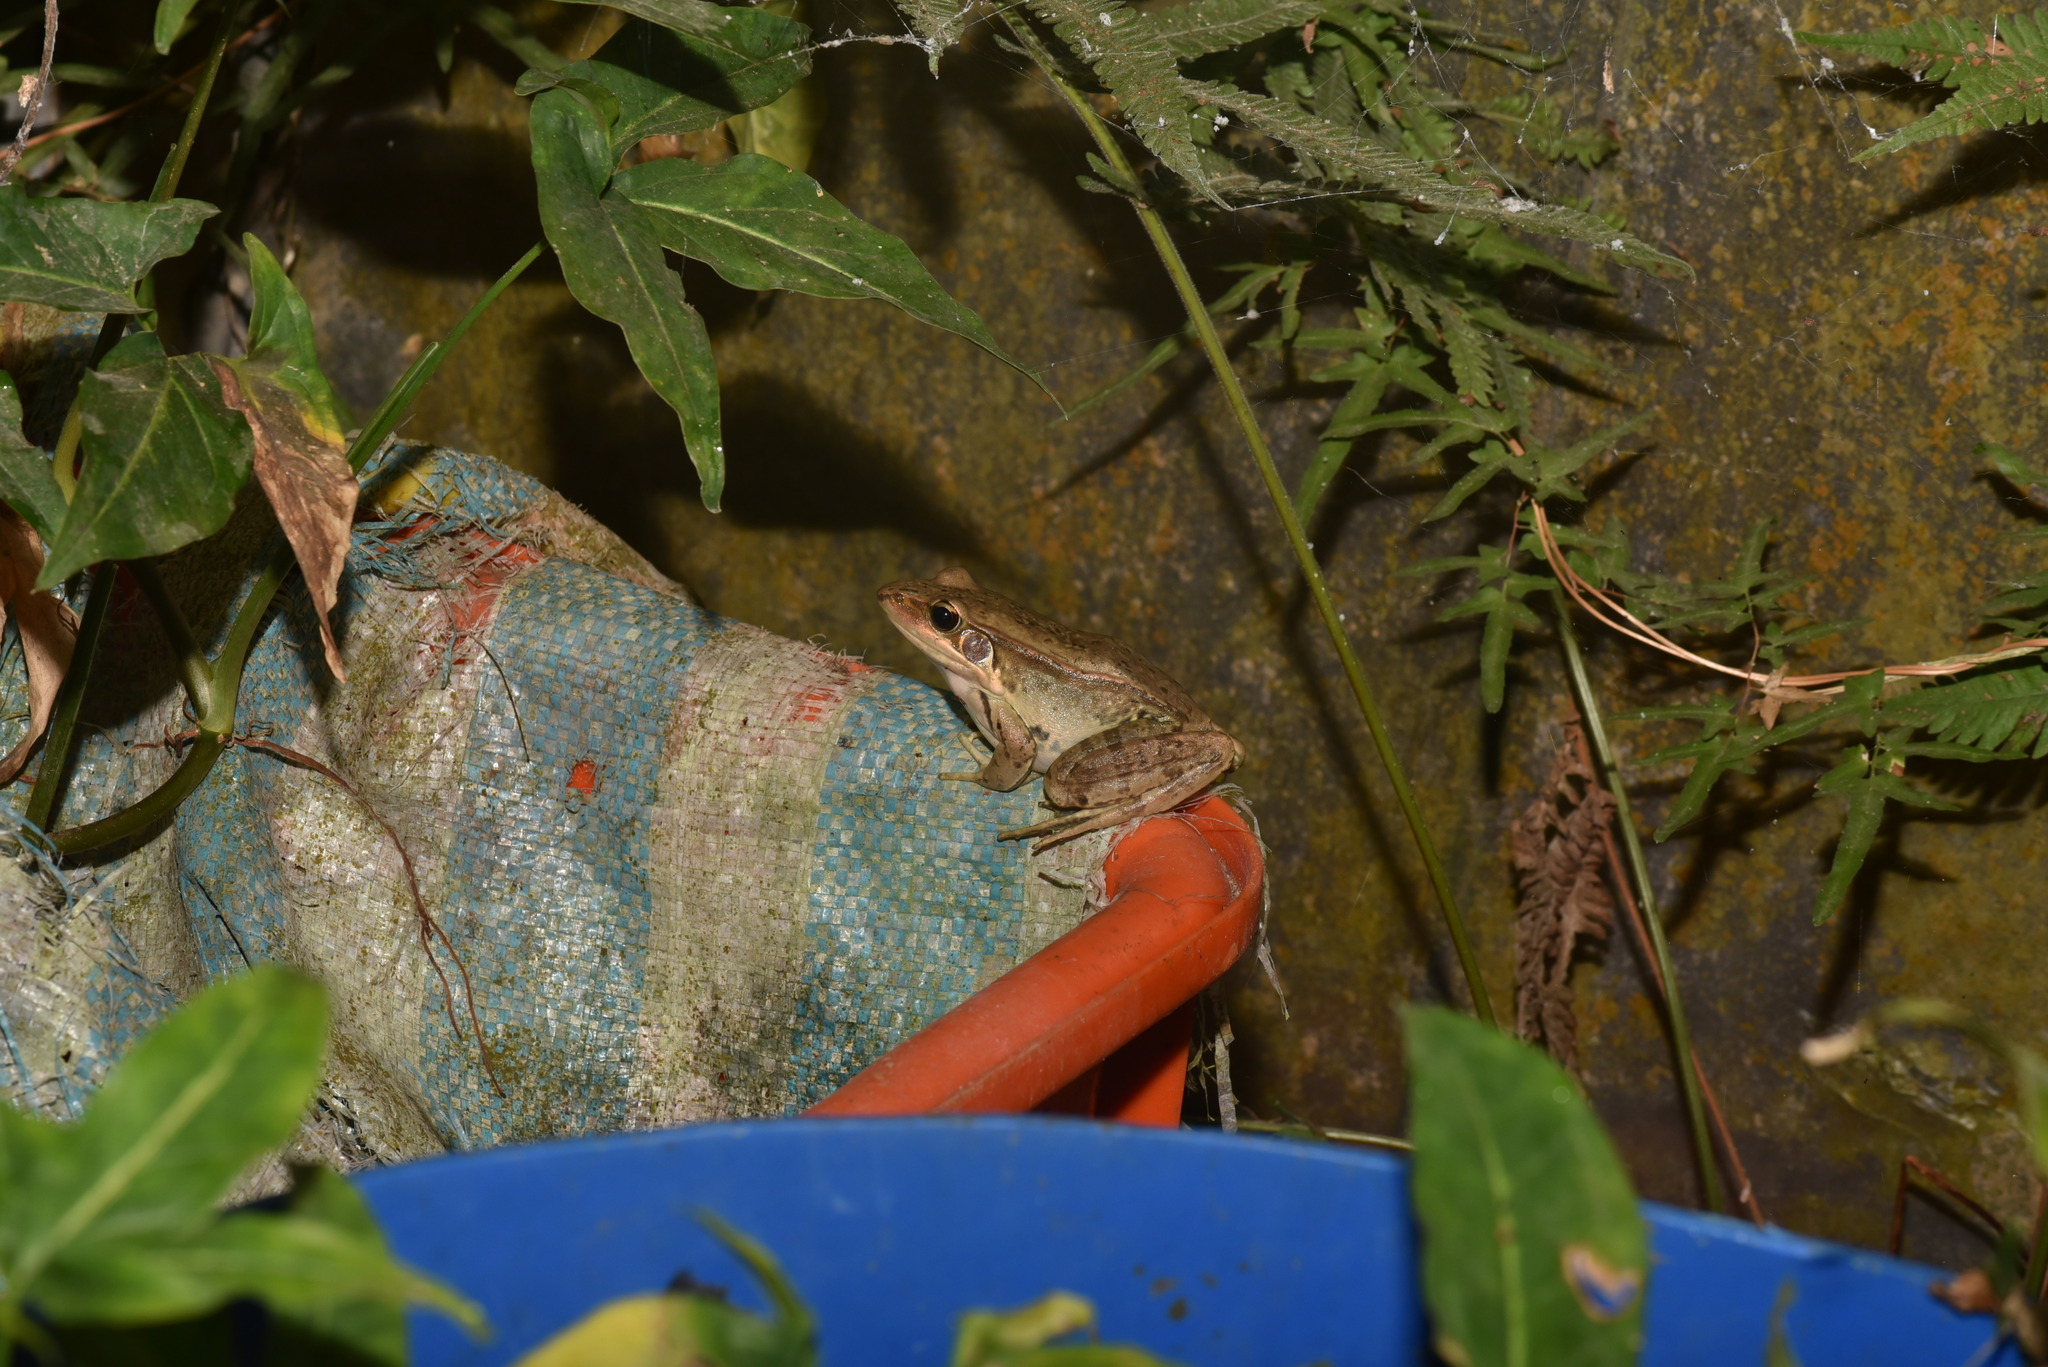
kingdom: Animalia
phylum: Chordata
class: Amphibia
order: Anura
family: Ranidae
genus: Sylvirana
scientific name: Sylvirana guentheri
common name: Guenther's amoy frog
